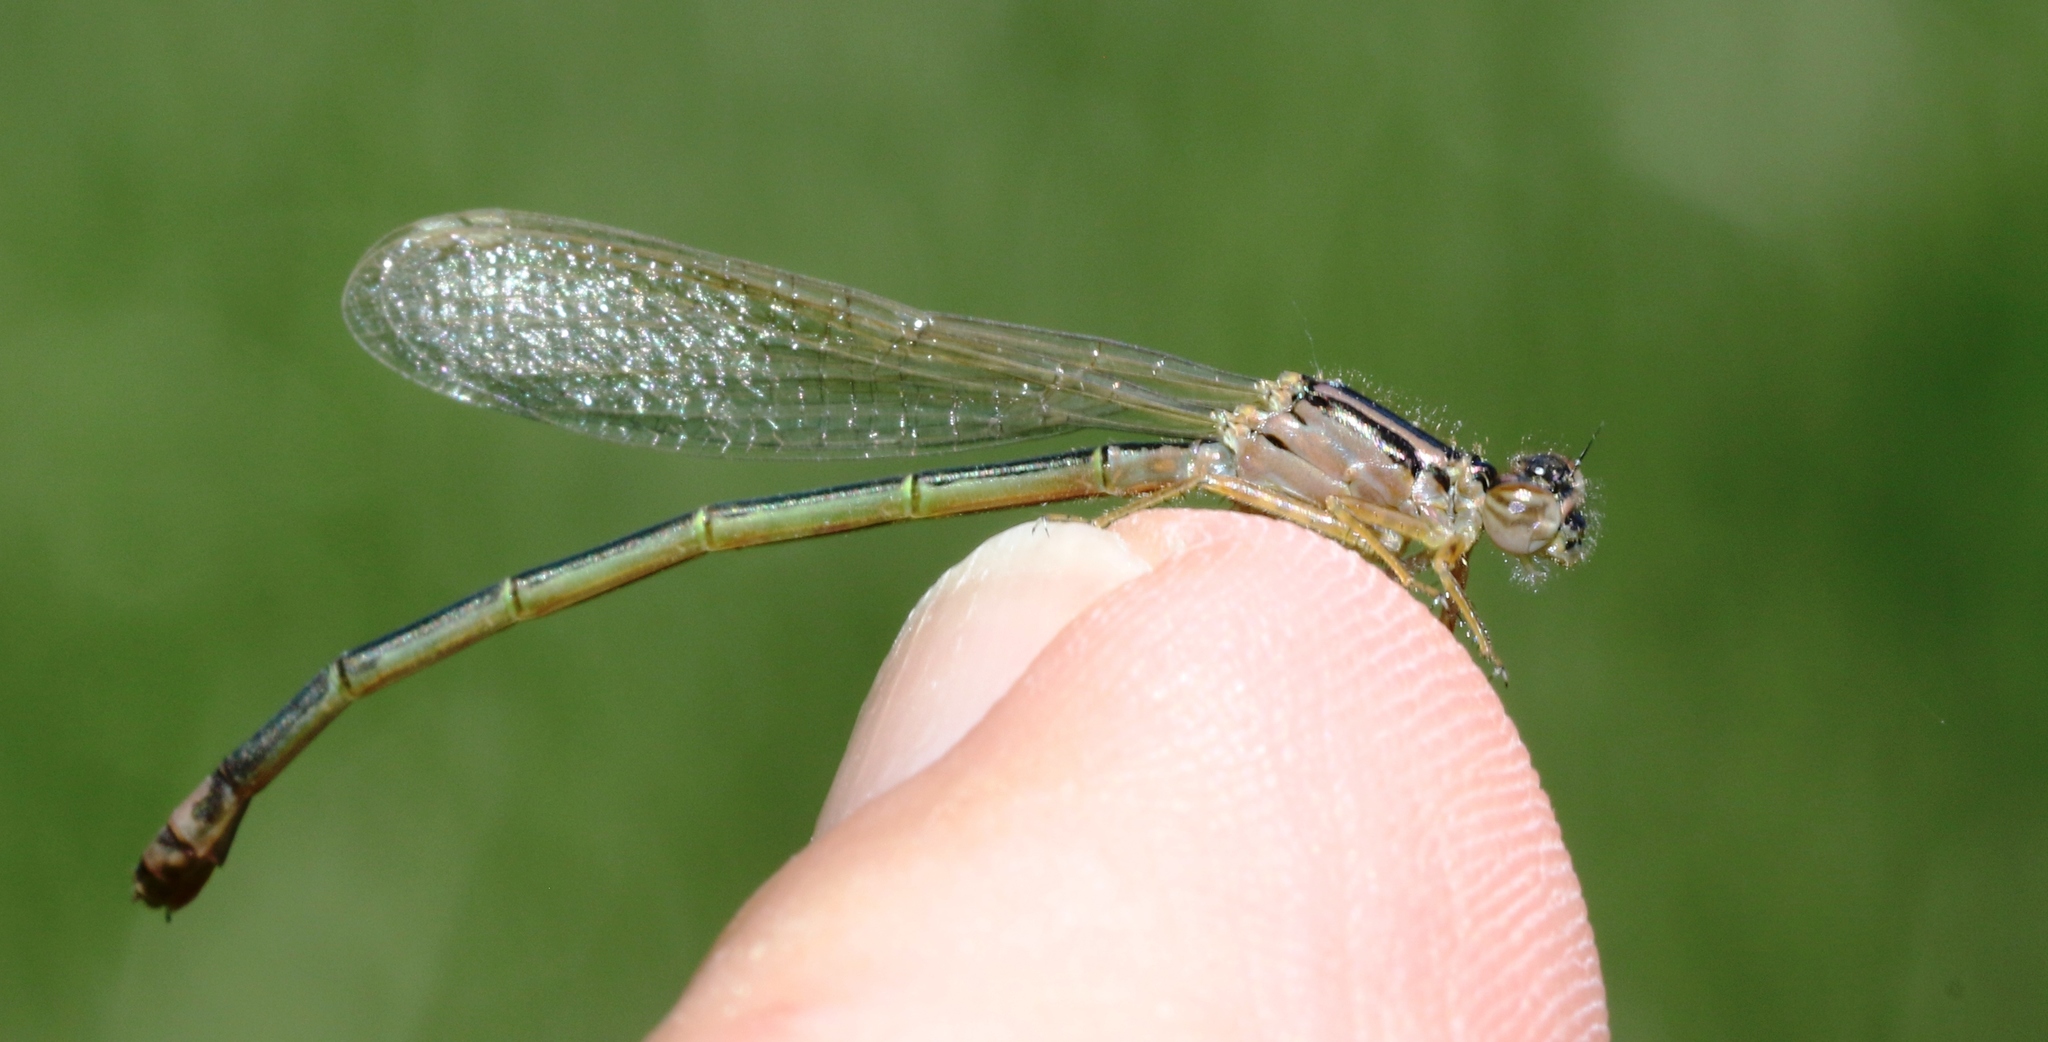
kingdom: Animalia
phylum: Arthropoda
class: Insecta
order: Odonata
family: Coenagrionidae
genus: Ischnura
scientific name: Ischnura verticalis
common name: Eastern forktail
